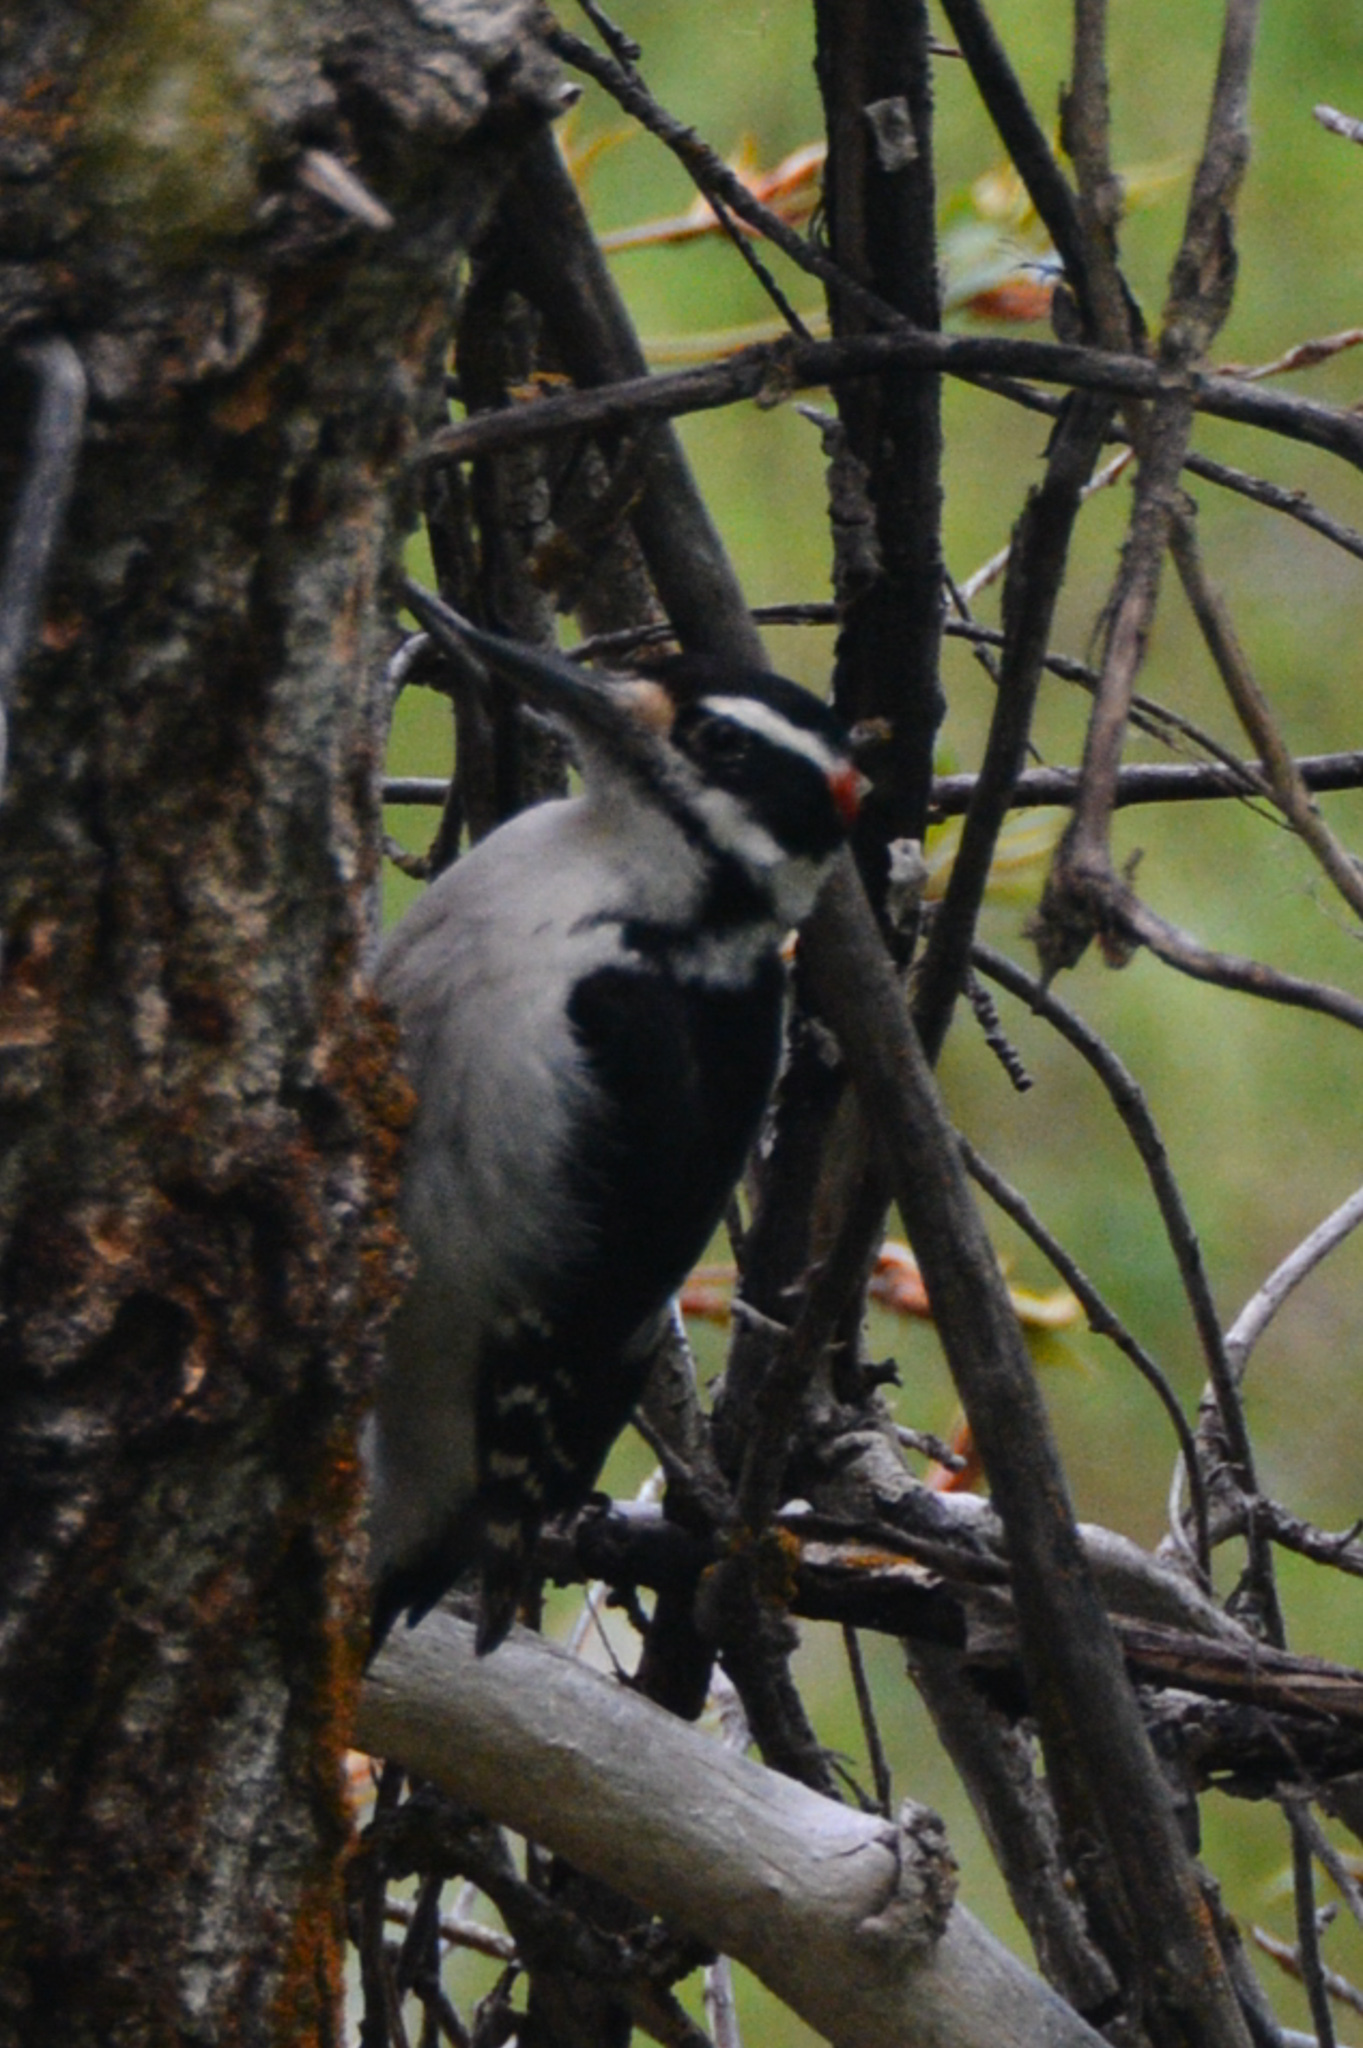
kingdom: Animalia
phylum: Chordata
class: Aves
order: Piciformes
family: Picidae
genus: Leuconotopicus
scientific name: Leuconotopicus villosus
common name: Hairy woodpecker
